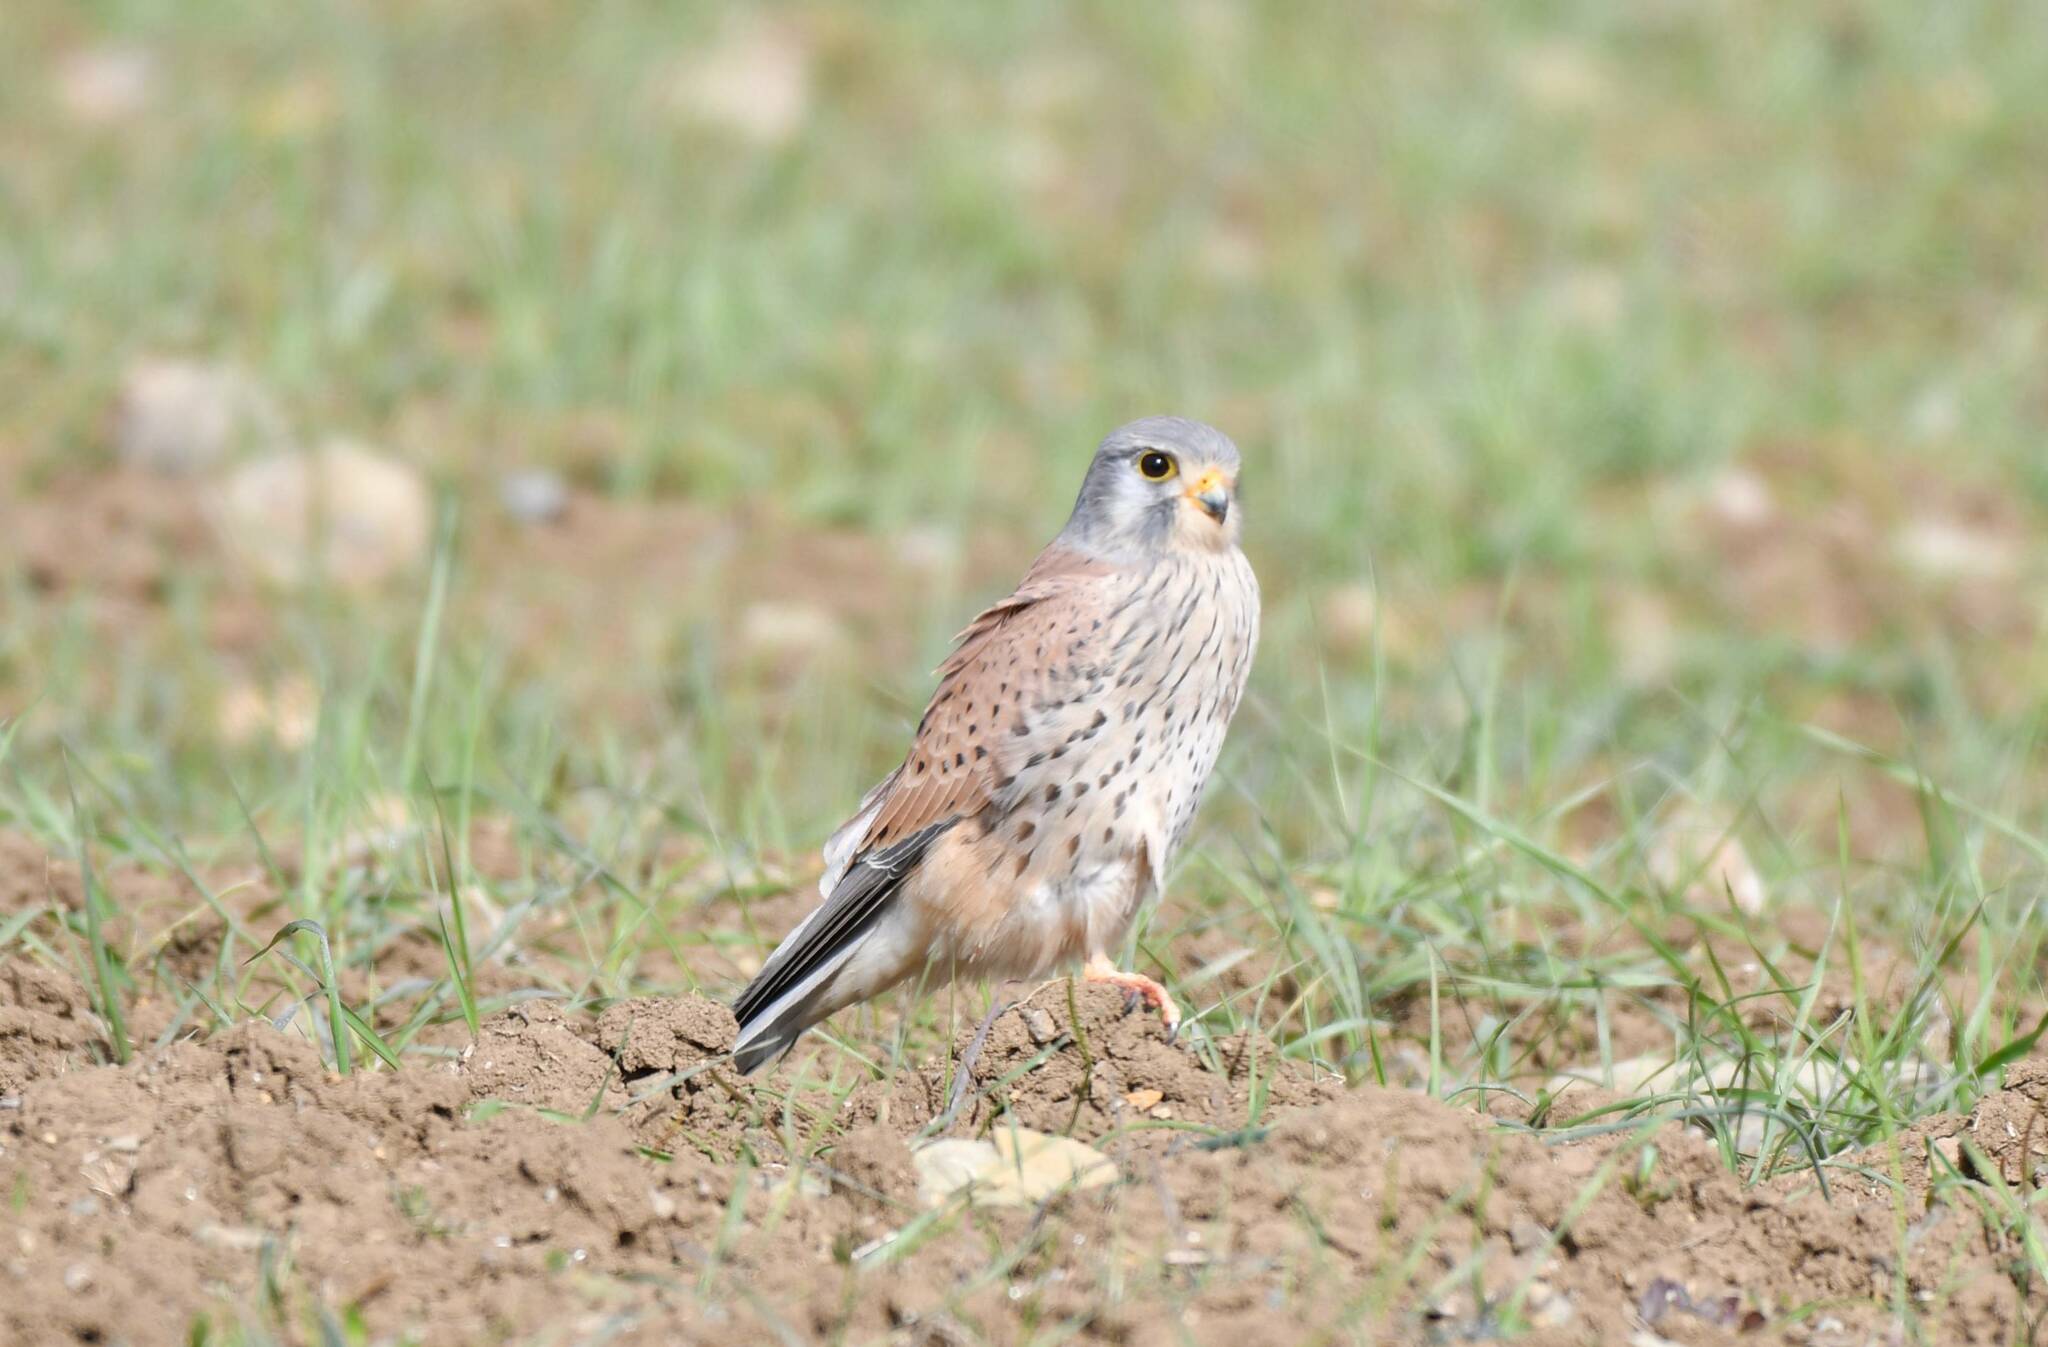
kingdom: Animalia
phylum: Chordata
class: Aves
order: Falconiformes
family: Falconidae
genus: Falco
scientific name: Falco tinnunculus
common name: Common kestrel
